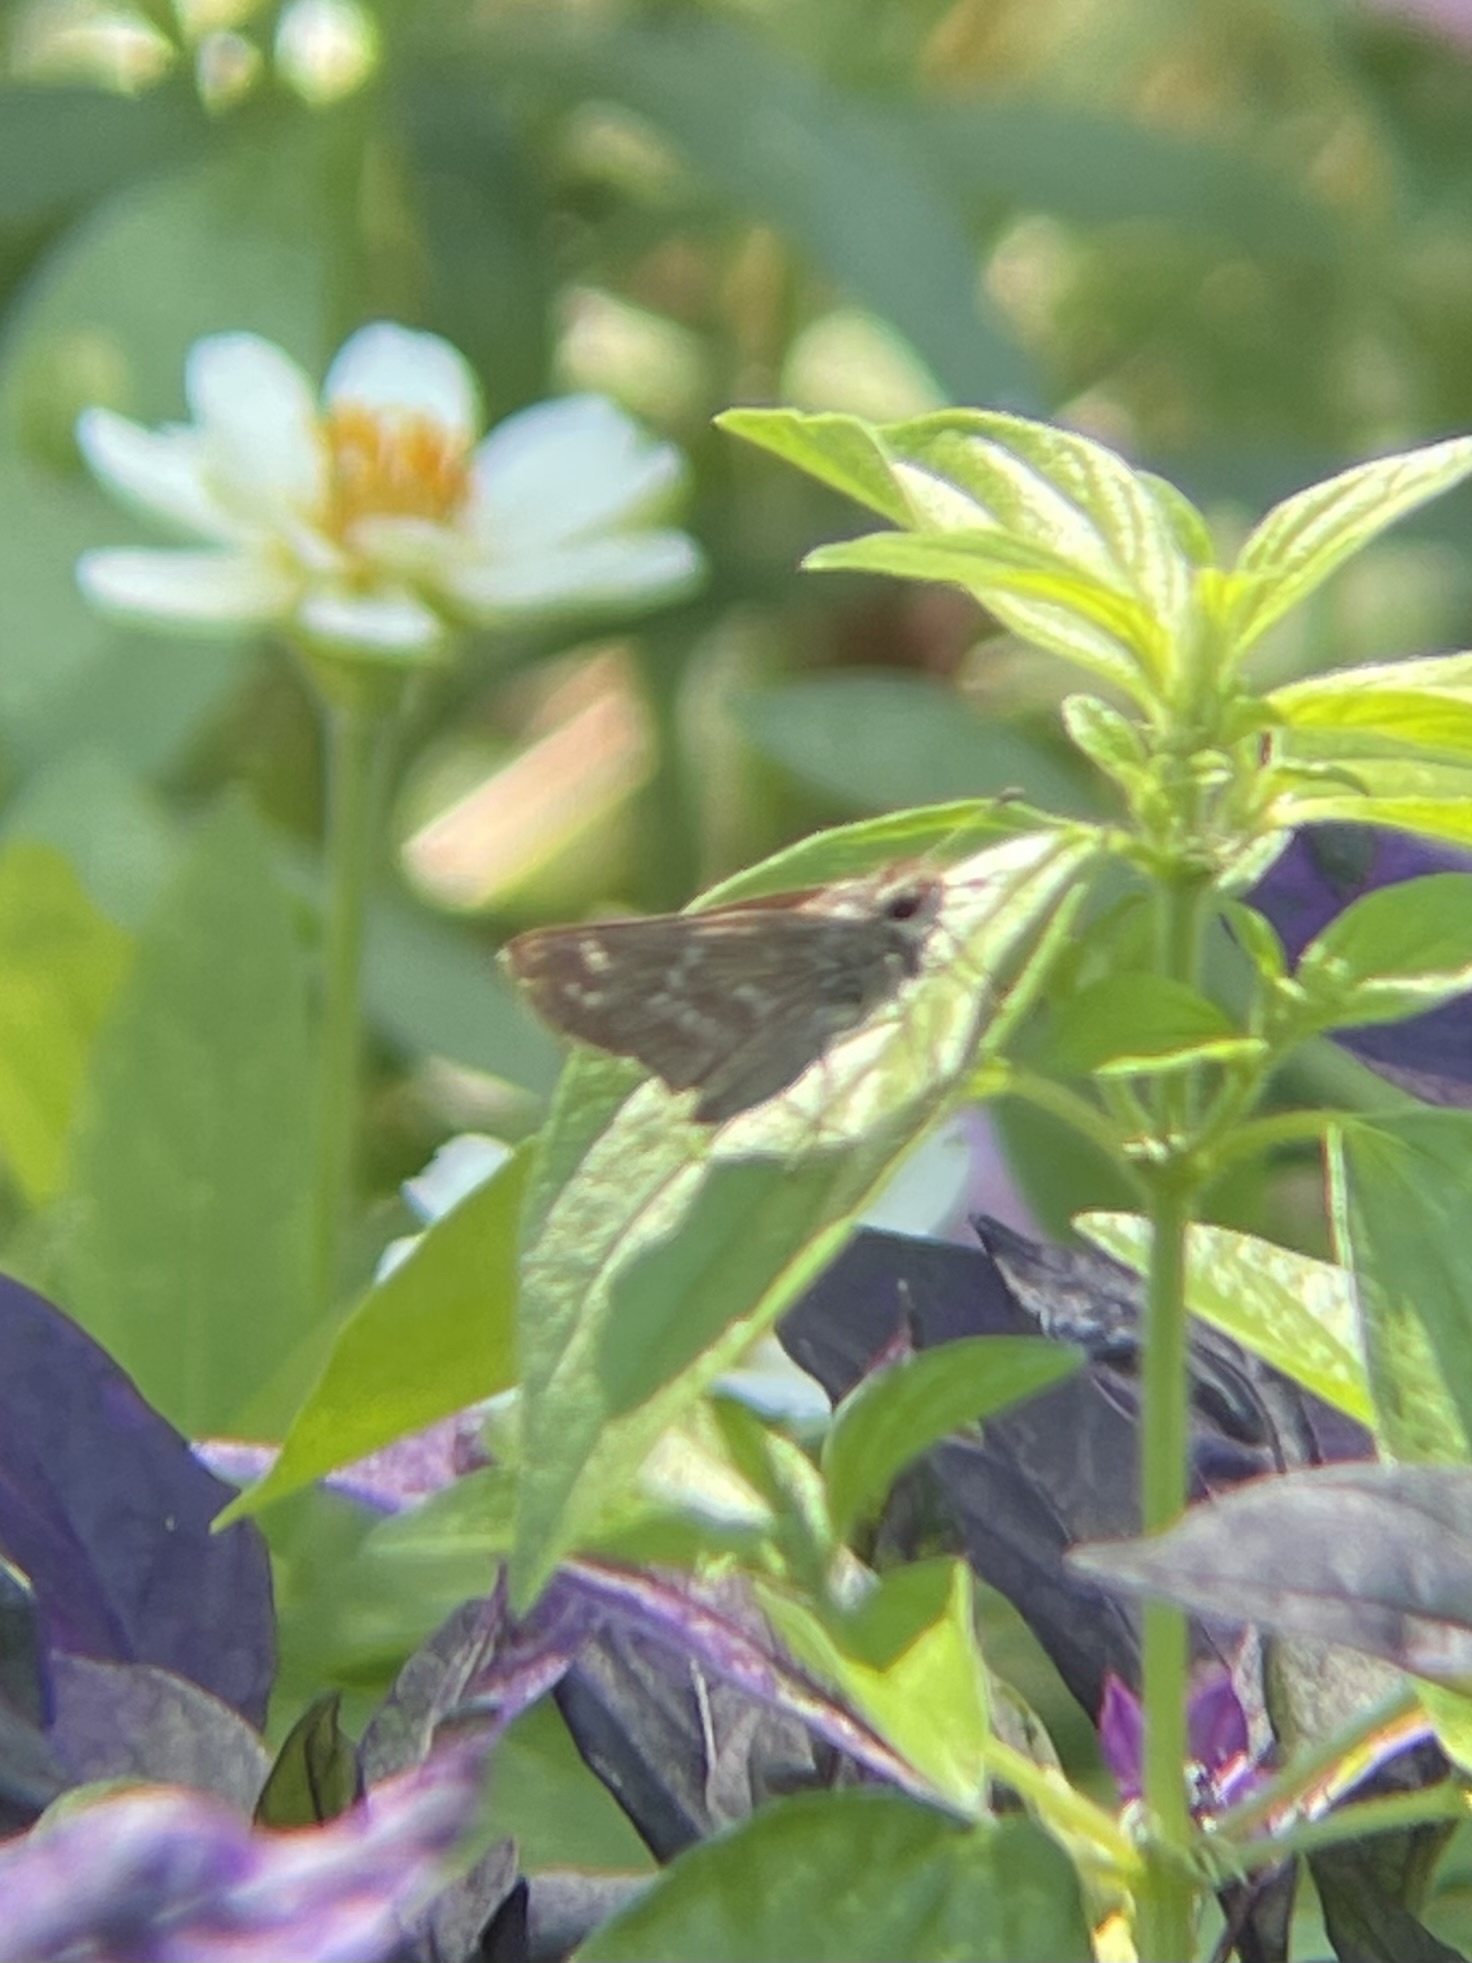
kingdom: Animalia
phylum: Arthropoda
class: Insecta
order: Lepidoptera
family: Hesperiidae
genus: Atalopedes
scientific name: Atalopedes
